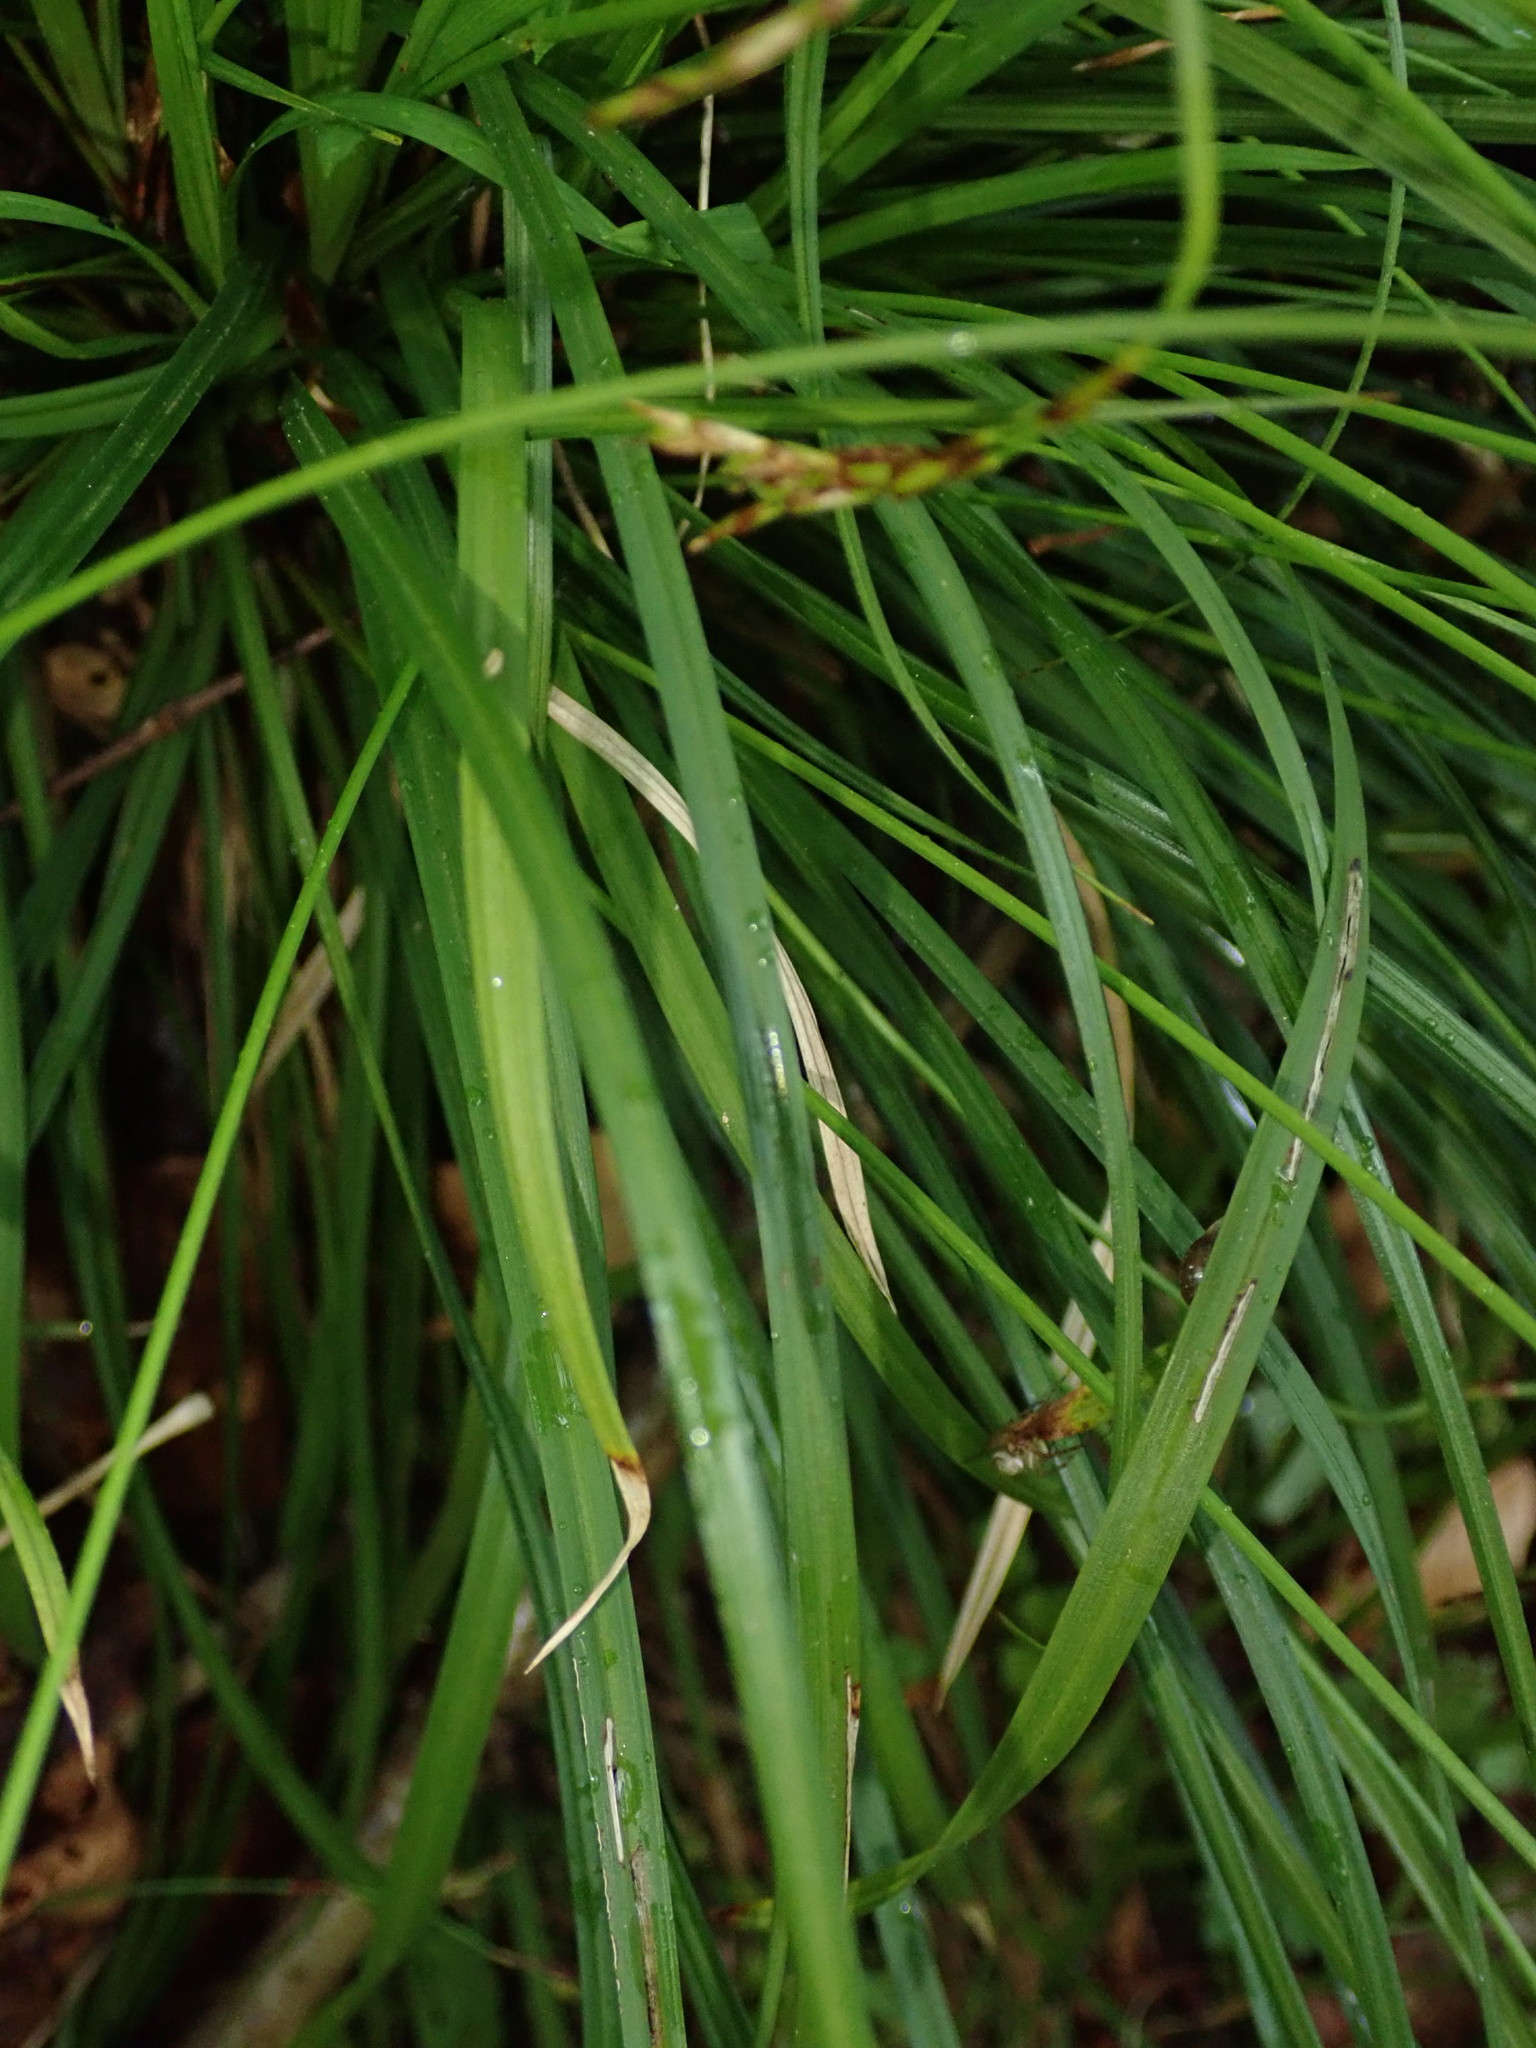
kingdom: Plantae
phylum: Tracheophyta
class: Liliopsida
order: Poales
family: Cyperaceae
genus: Carex
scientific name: Carex digitata
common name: Fingered sedge
